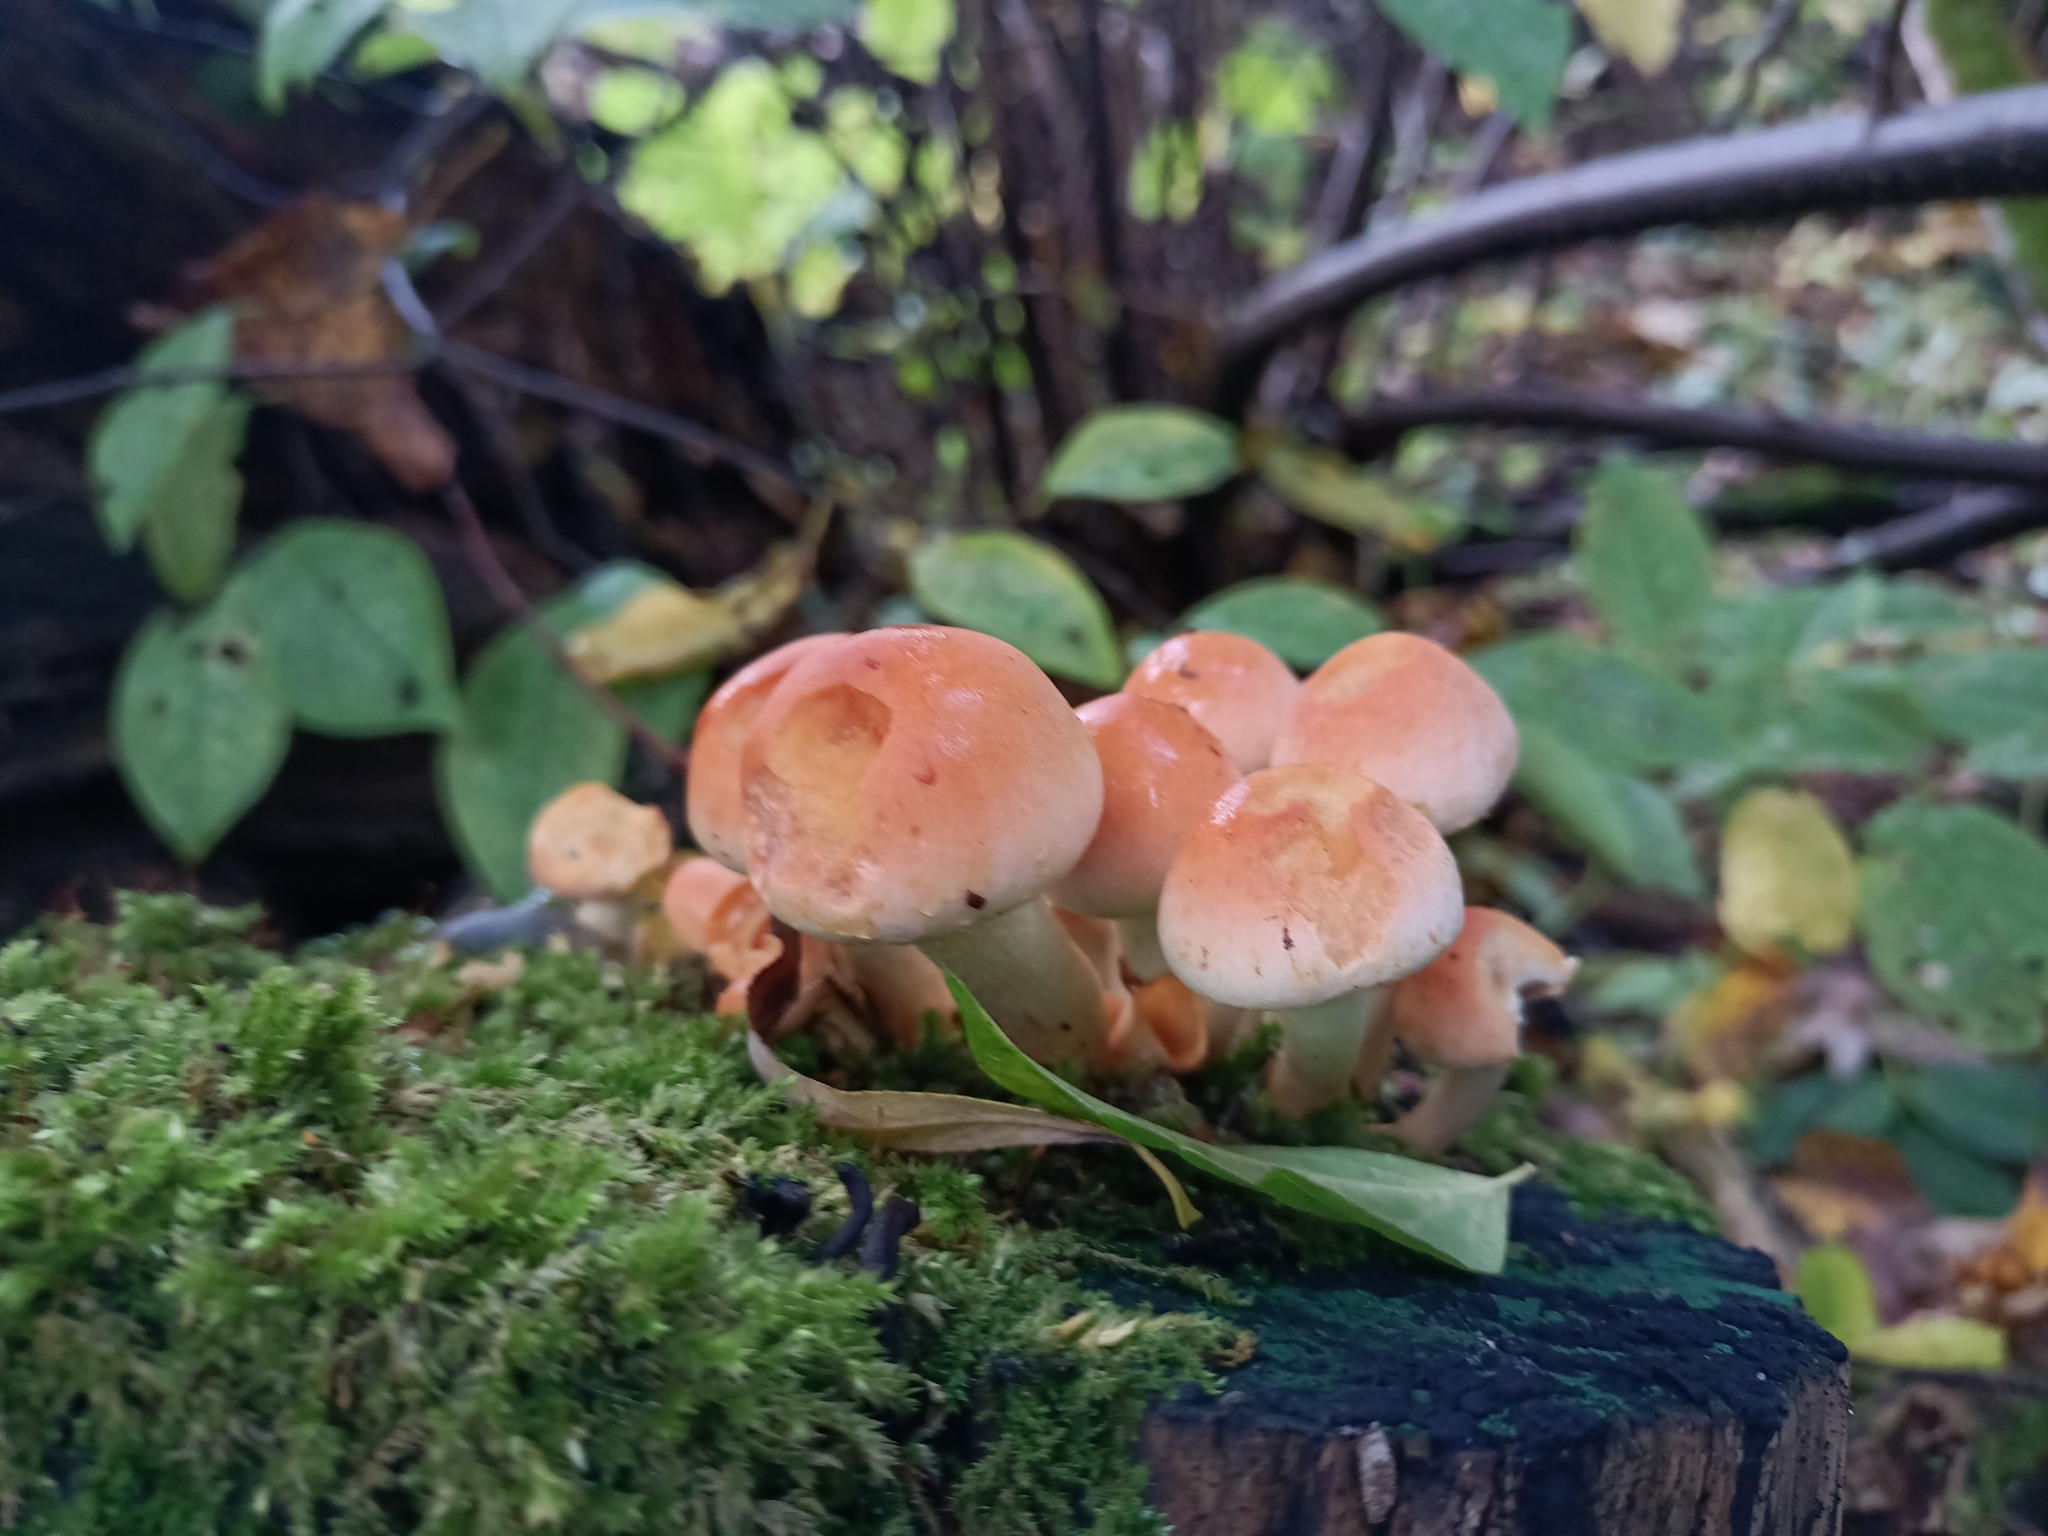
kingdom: Fungi
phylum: Basidiomycota
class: Agaricomycetes
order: Agaricales
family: Strophariaceae
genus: Hypholoma
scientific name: Hypholoma lateritium
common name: Brick caps
